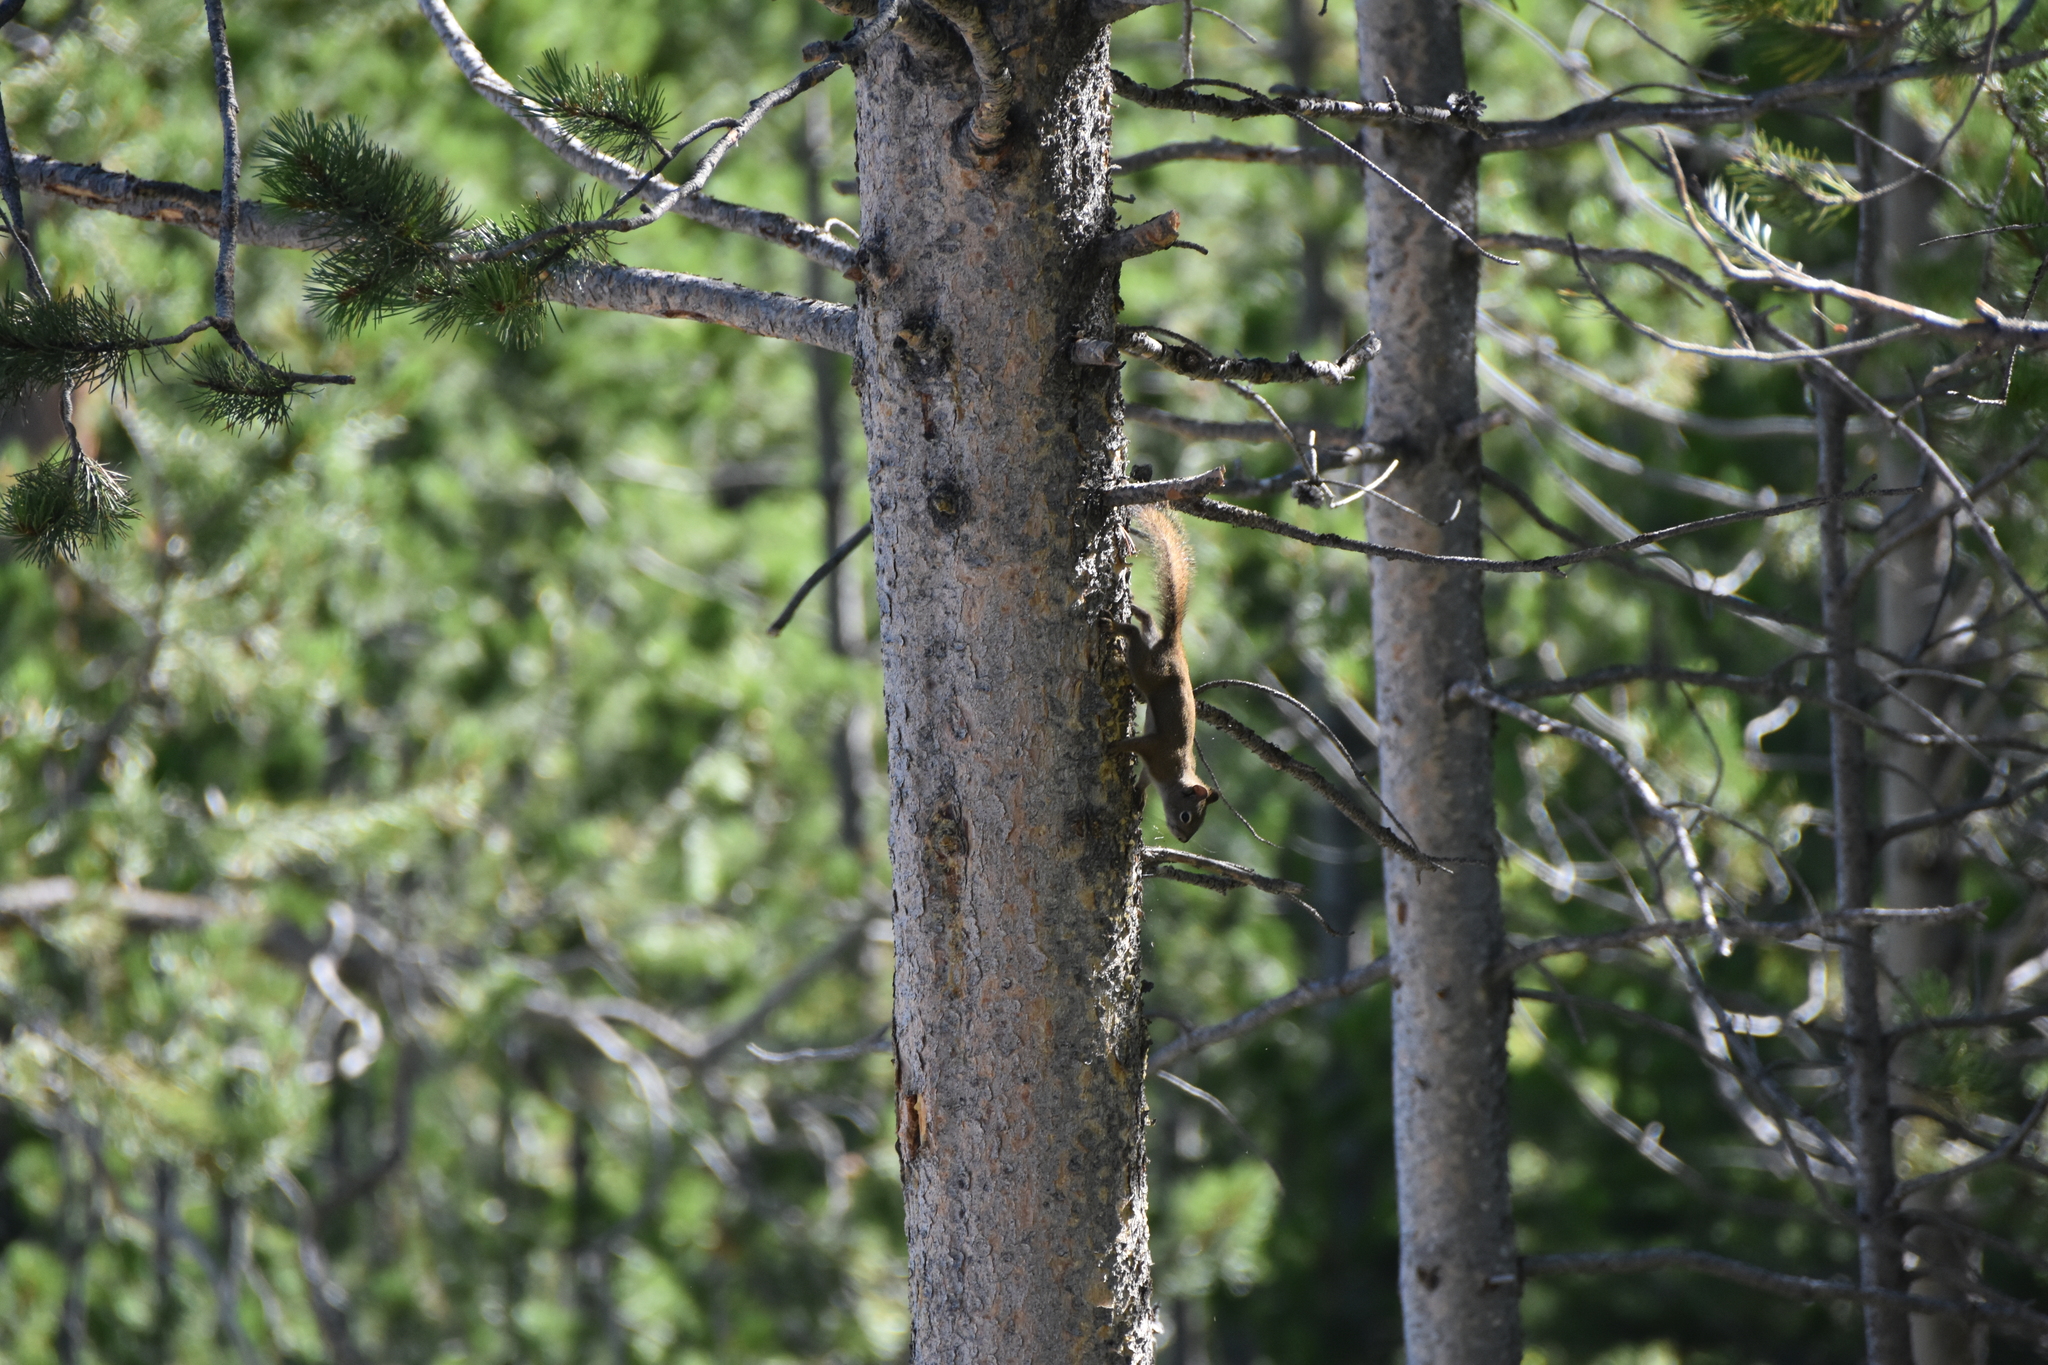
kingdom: Animalia
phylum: Chordata
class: Mammalia
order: Rodentia
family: Sciuridae
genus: Tamiasciurus
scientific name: Tamiasciurus hudsonicus
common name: Red squirrel
